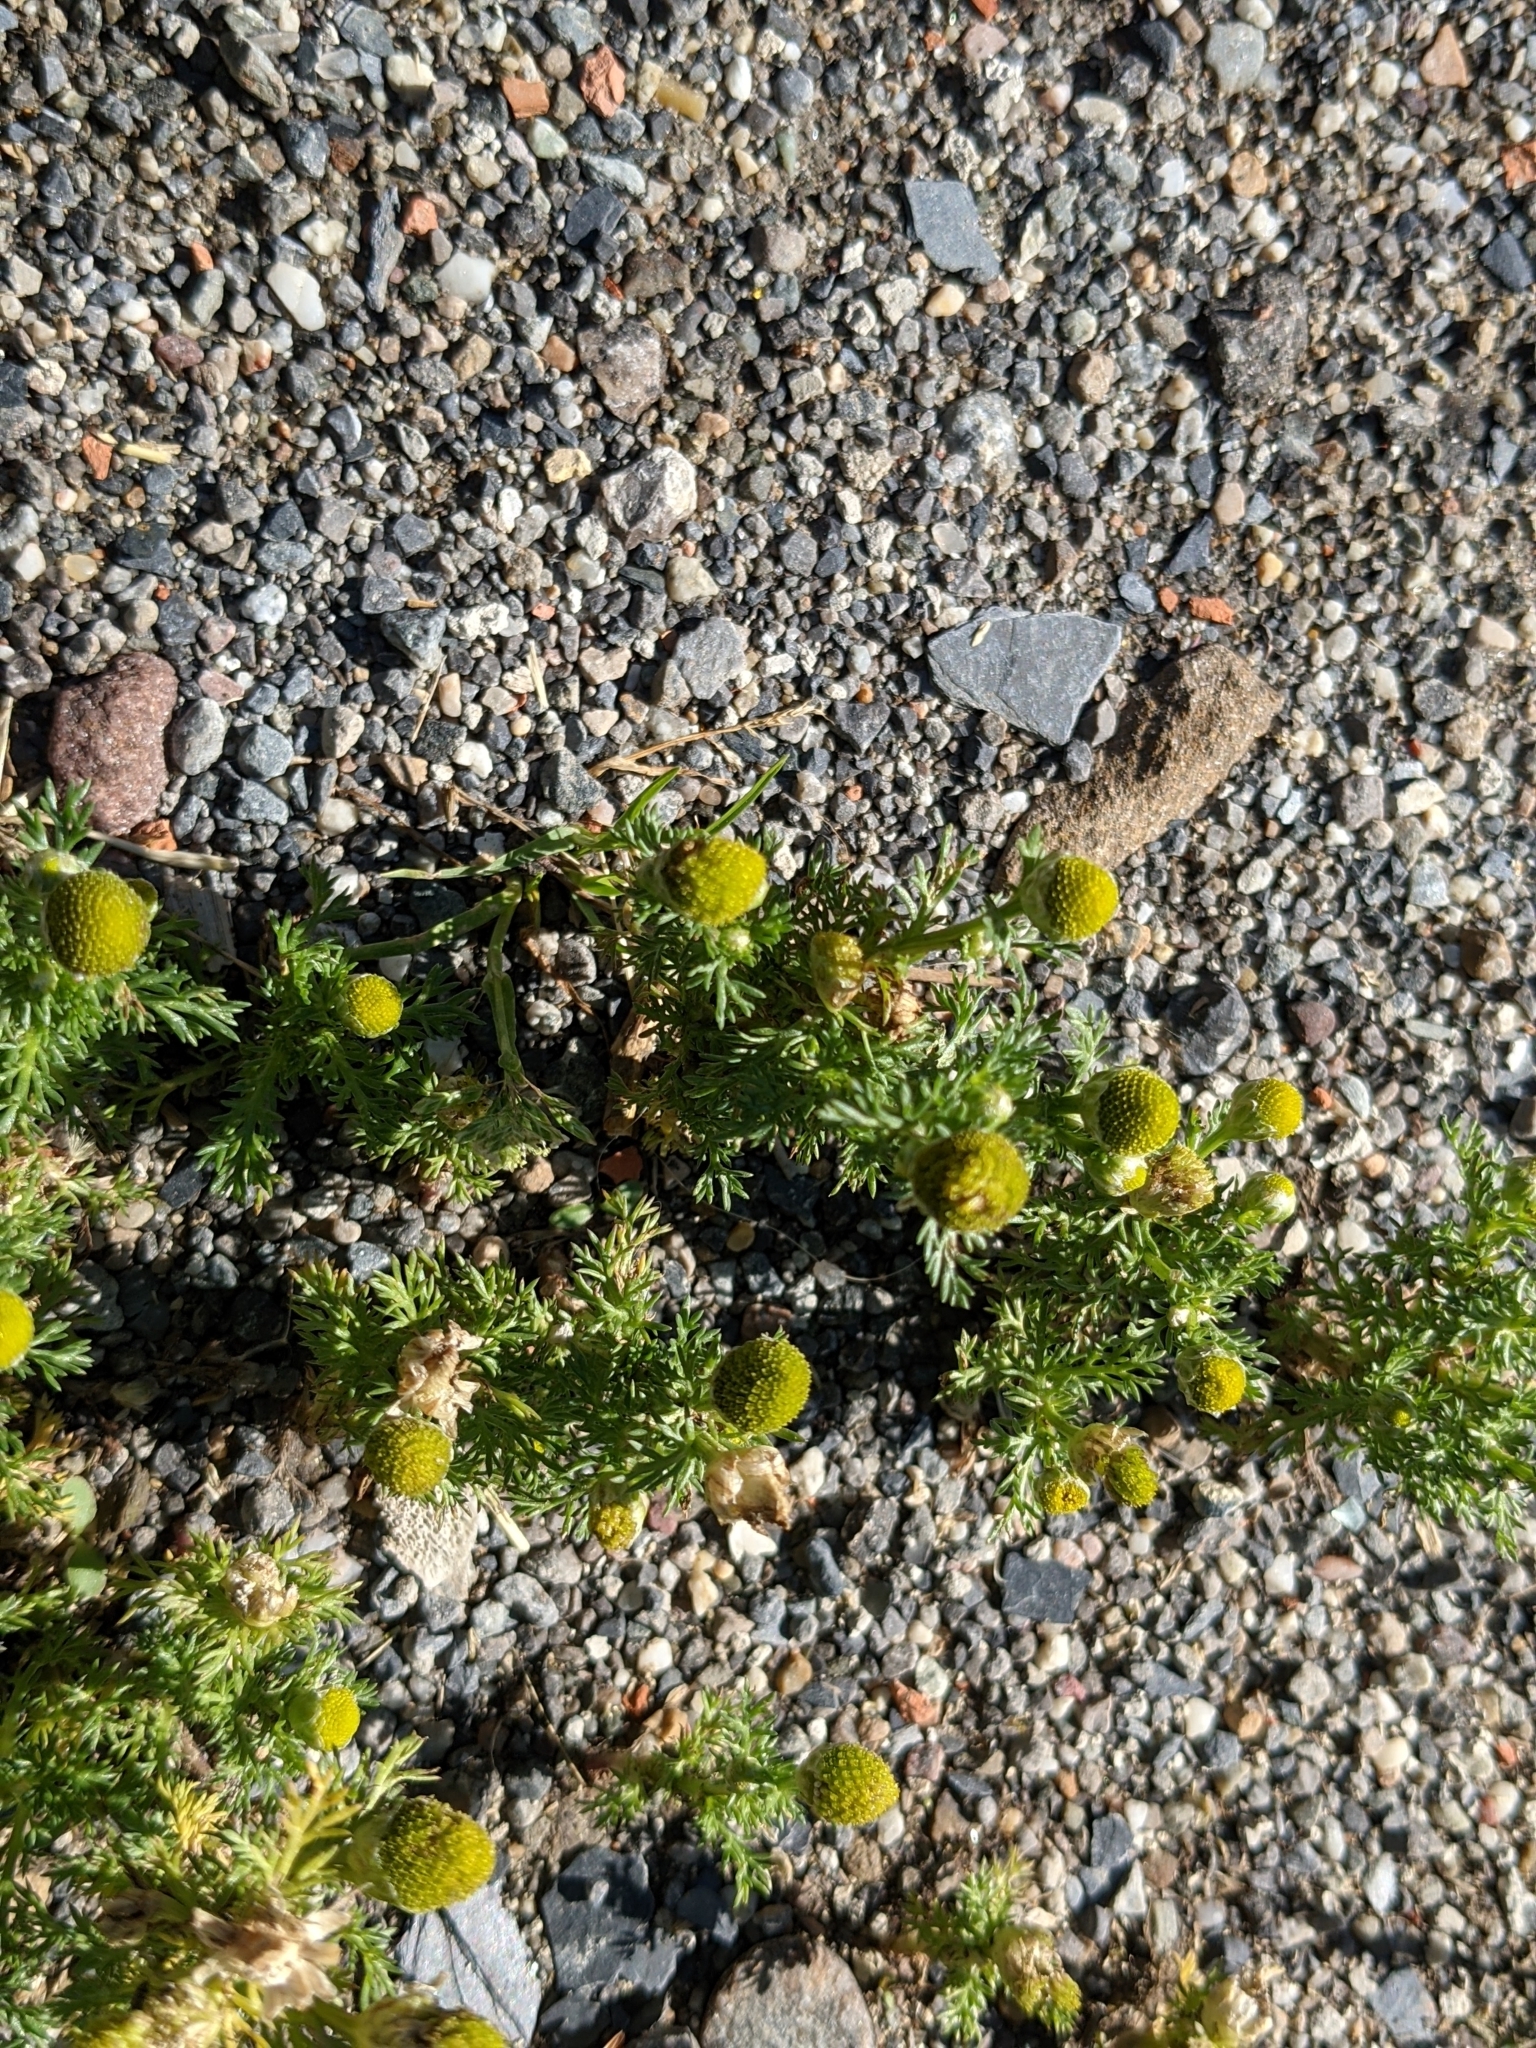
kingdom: Plantae
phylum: Tracheophyta
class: Magnoliopsida
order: Asterales
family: Asteraceae
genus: Matricaria
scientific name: Matricaria discoidea
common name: Disc mayweed
